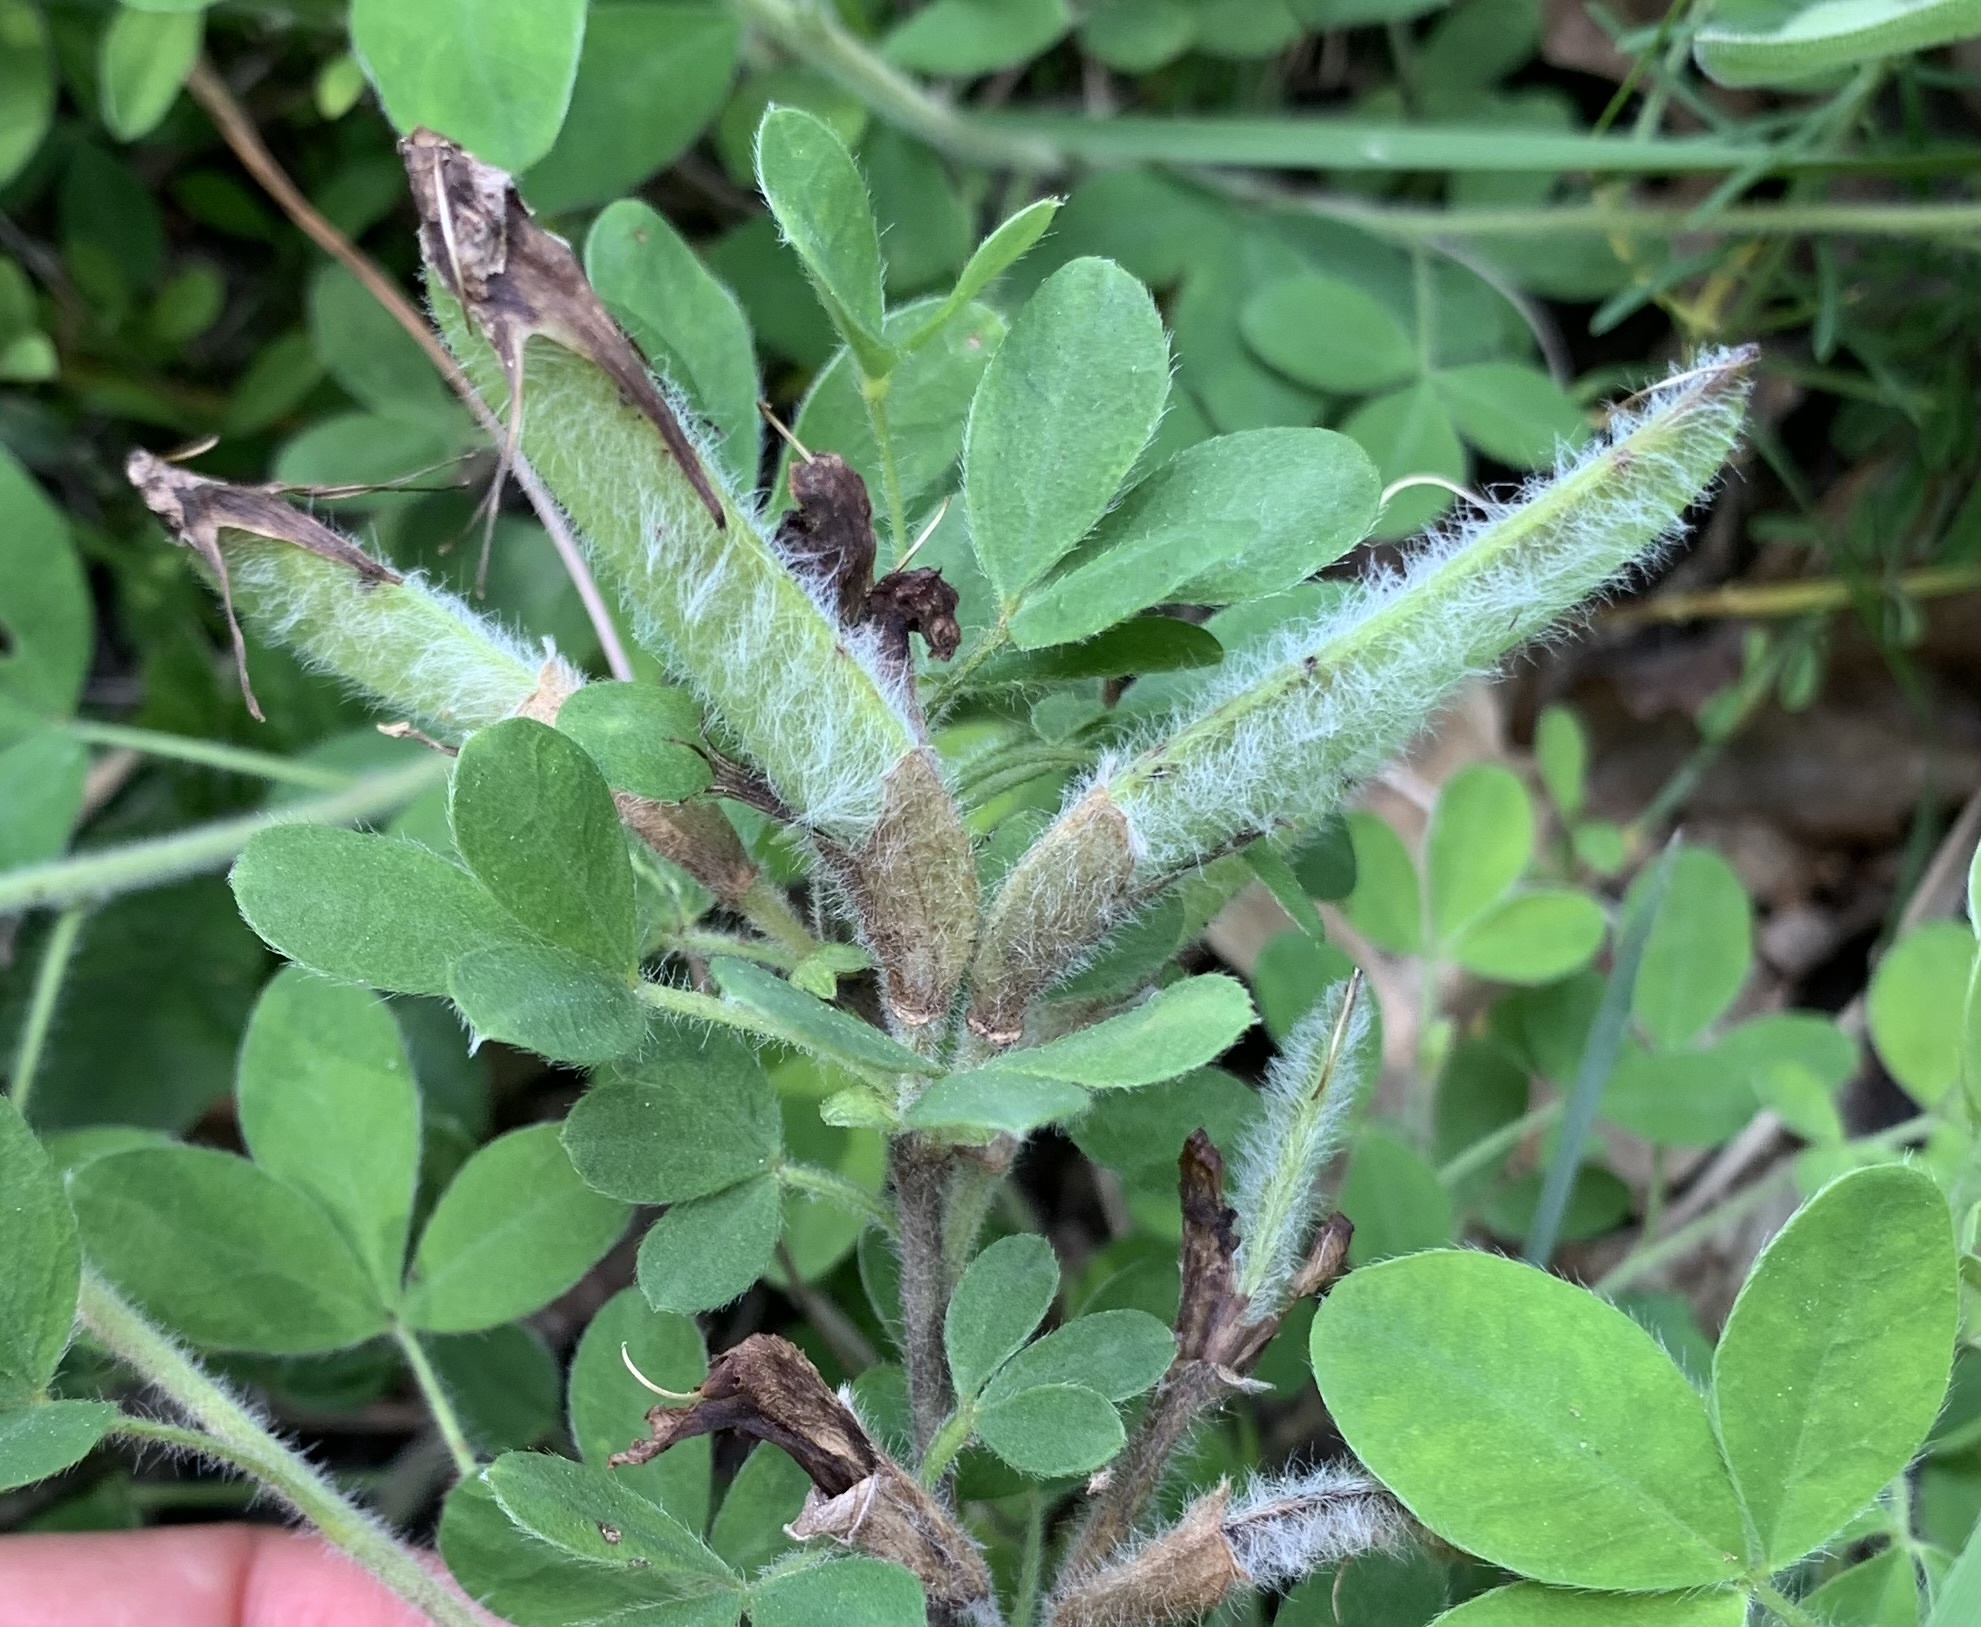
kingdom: Plantae
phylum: Tracheophyta
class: Magnoliopsida
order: Fabales
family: Fabaceae
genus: Chamaecytisus
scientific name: Chamaecytisus hirsutus
